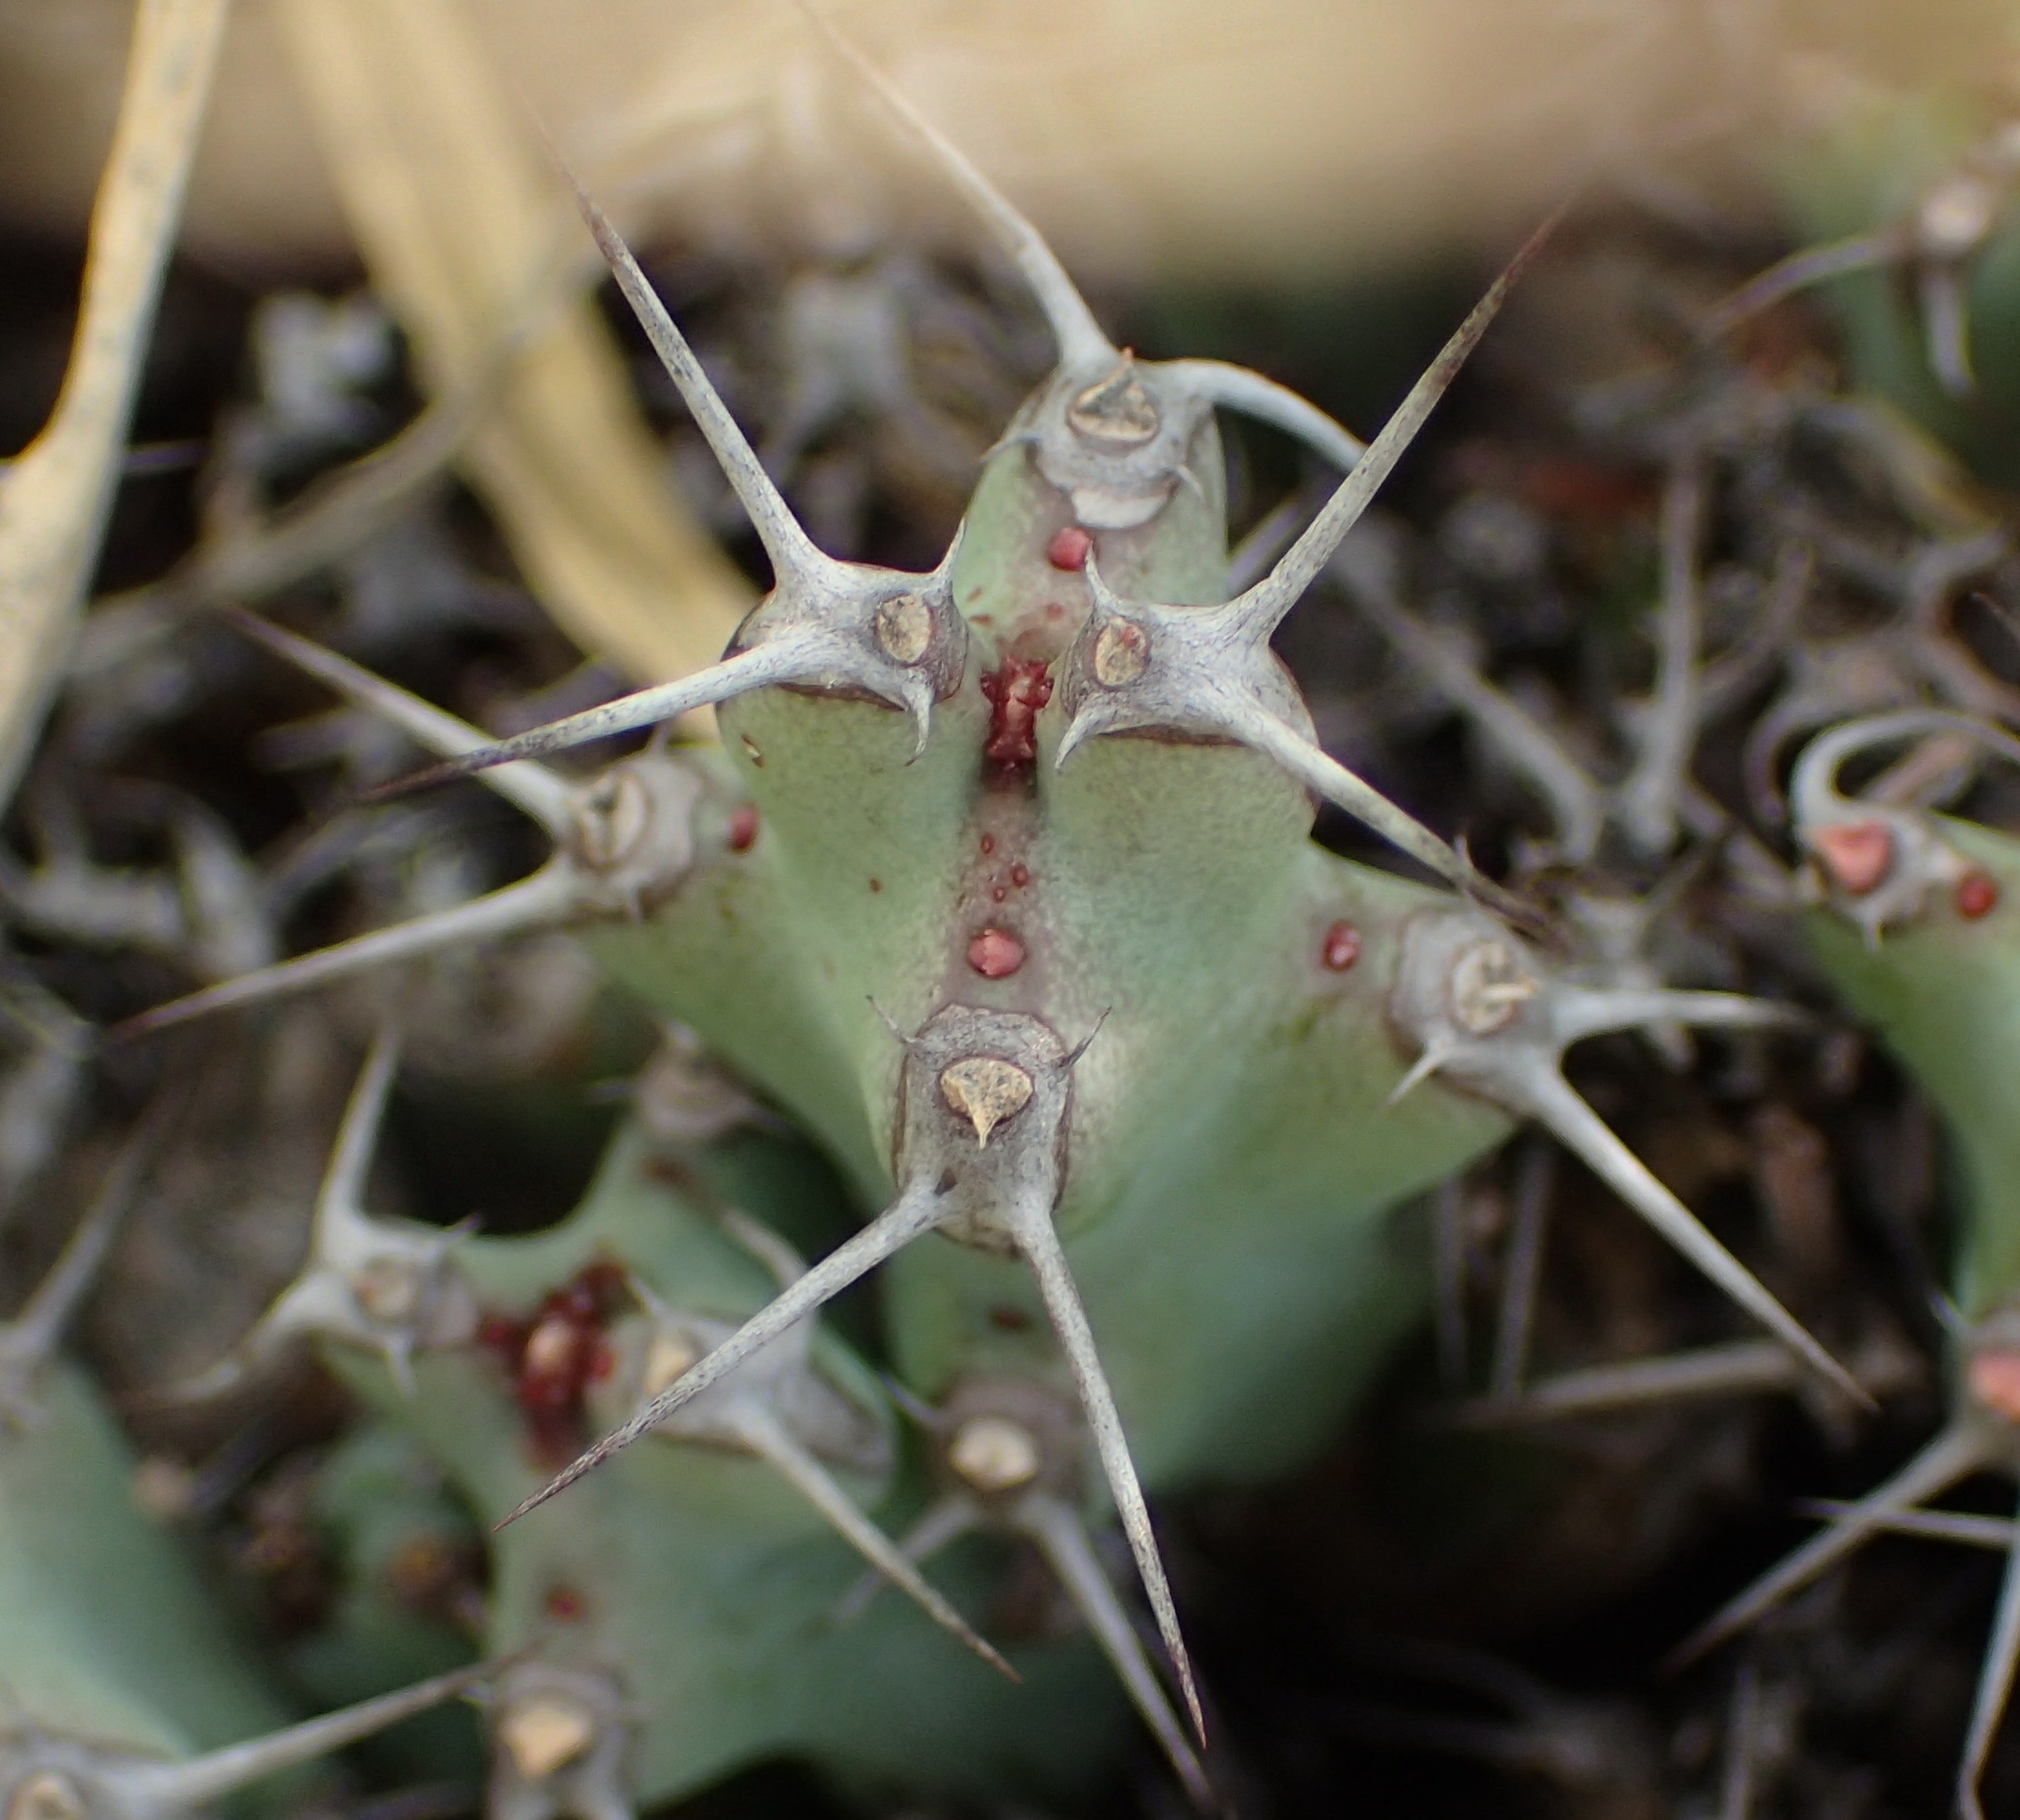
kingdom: Plantae
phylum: Tracheophyta
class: Magnoliopsida
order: Malpighiales
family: Euphorbiaceae
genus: Euphorbia
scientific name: Euphorbia schinzii
